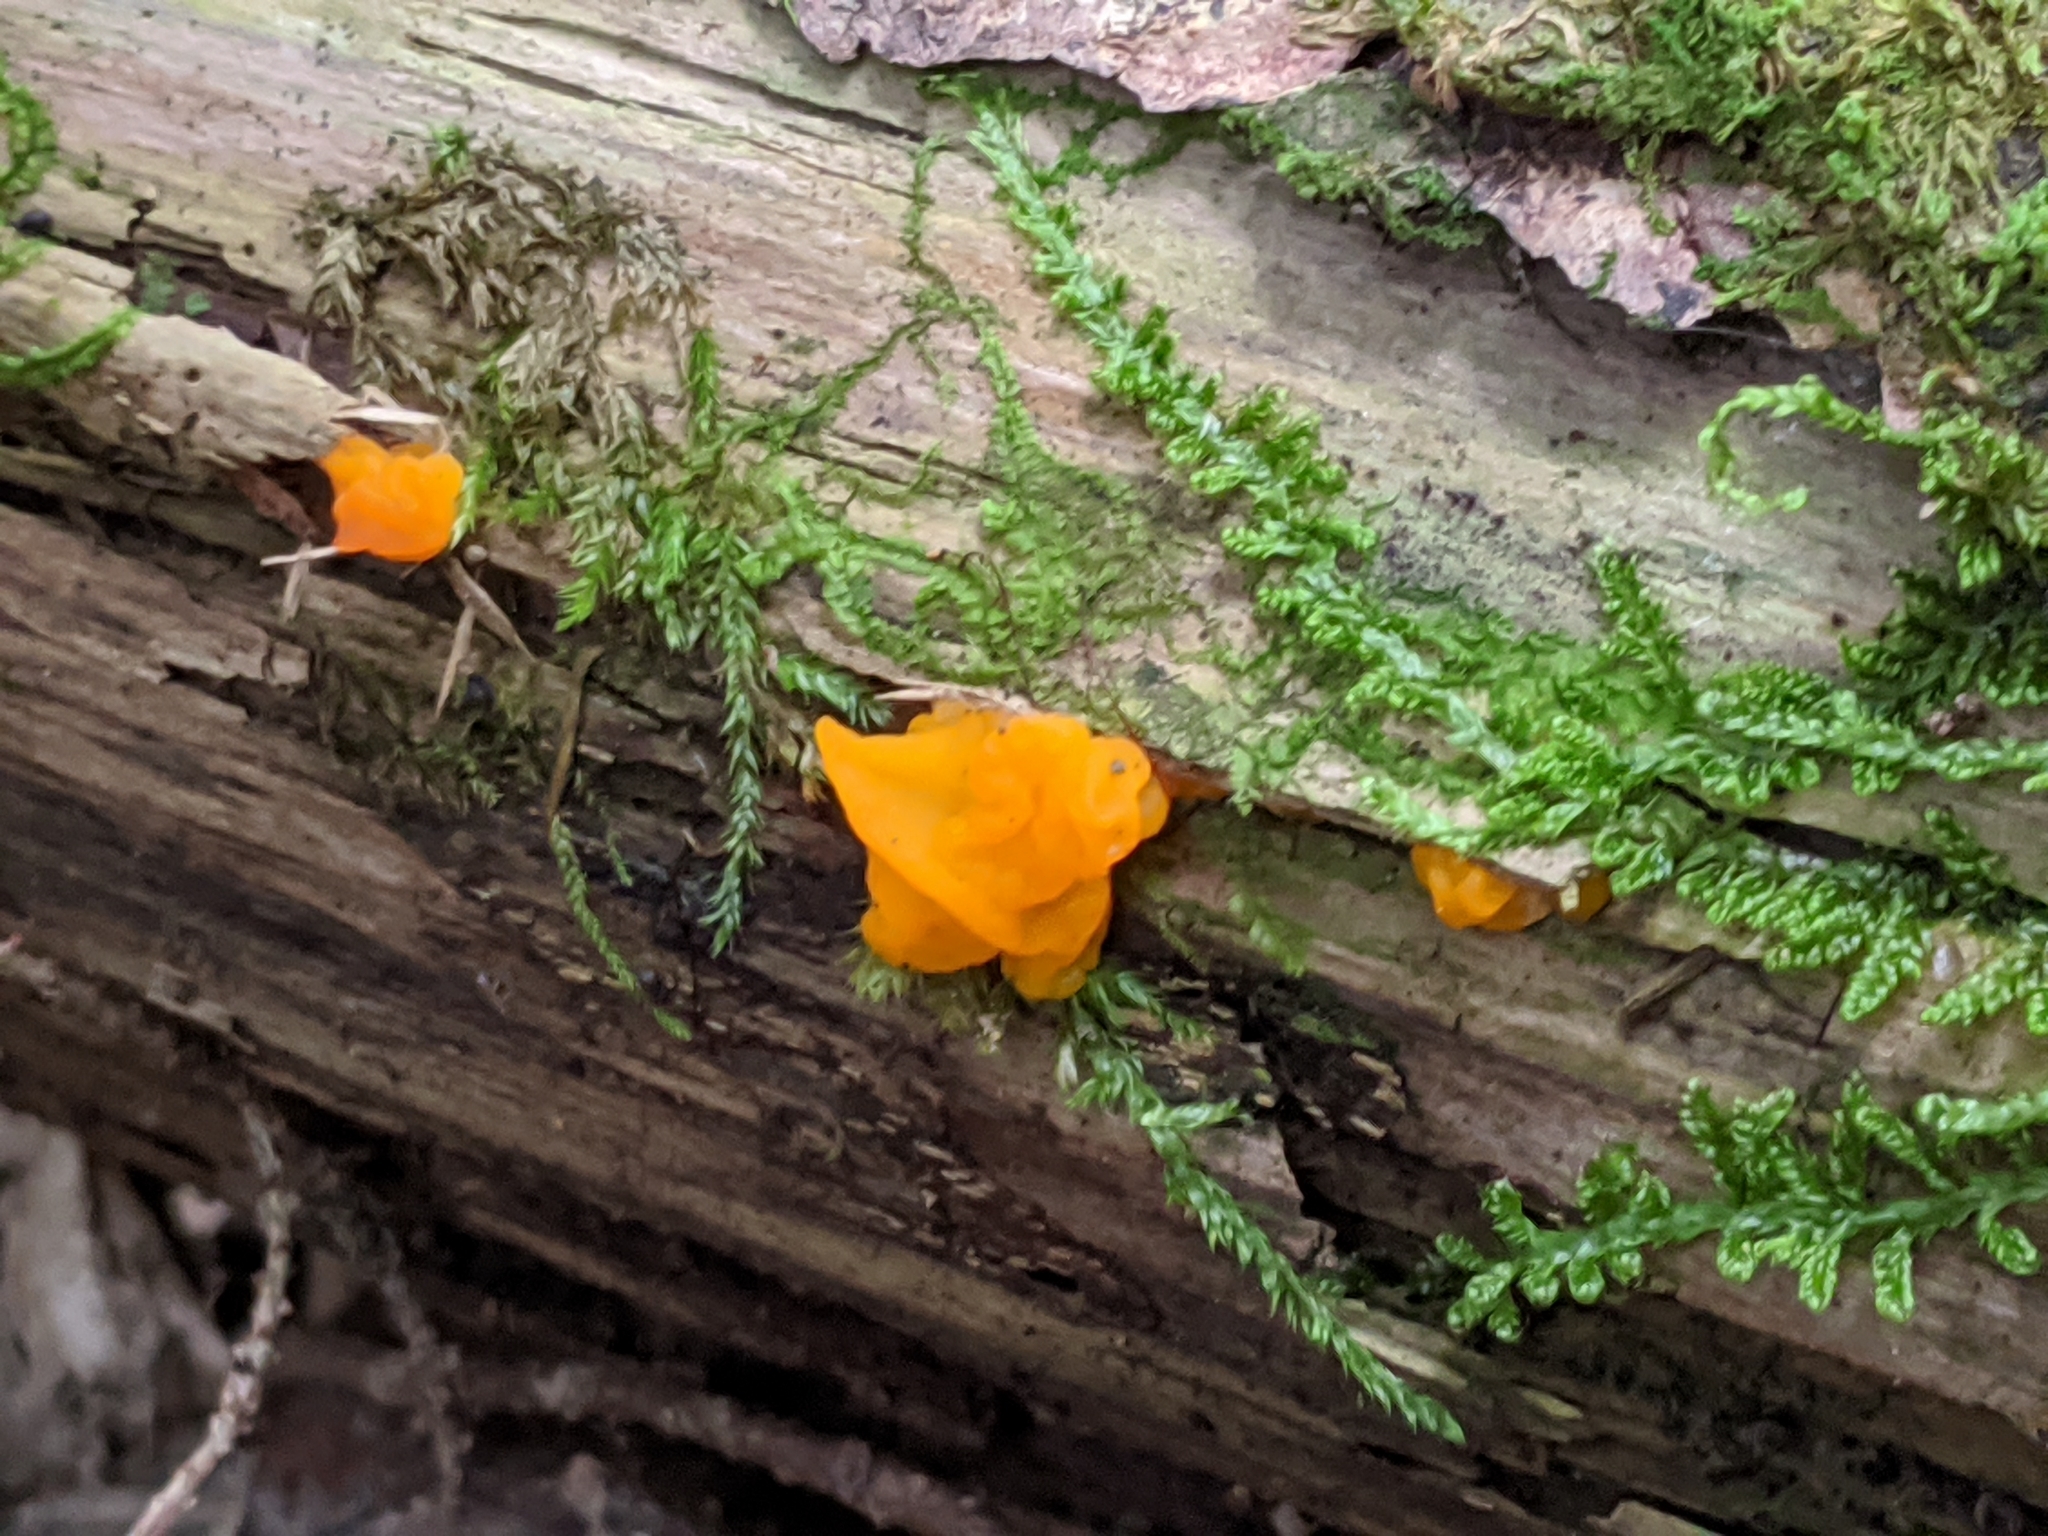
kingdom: Fungi
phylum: Basidiomycota
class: Dacrymycetes
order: Dacrymycetales
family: Dacrymycetaceae
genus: Dacrymyces
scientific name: Dacrymyces chrysospermus
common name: Orange jelly spot
